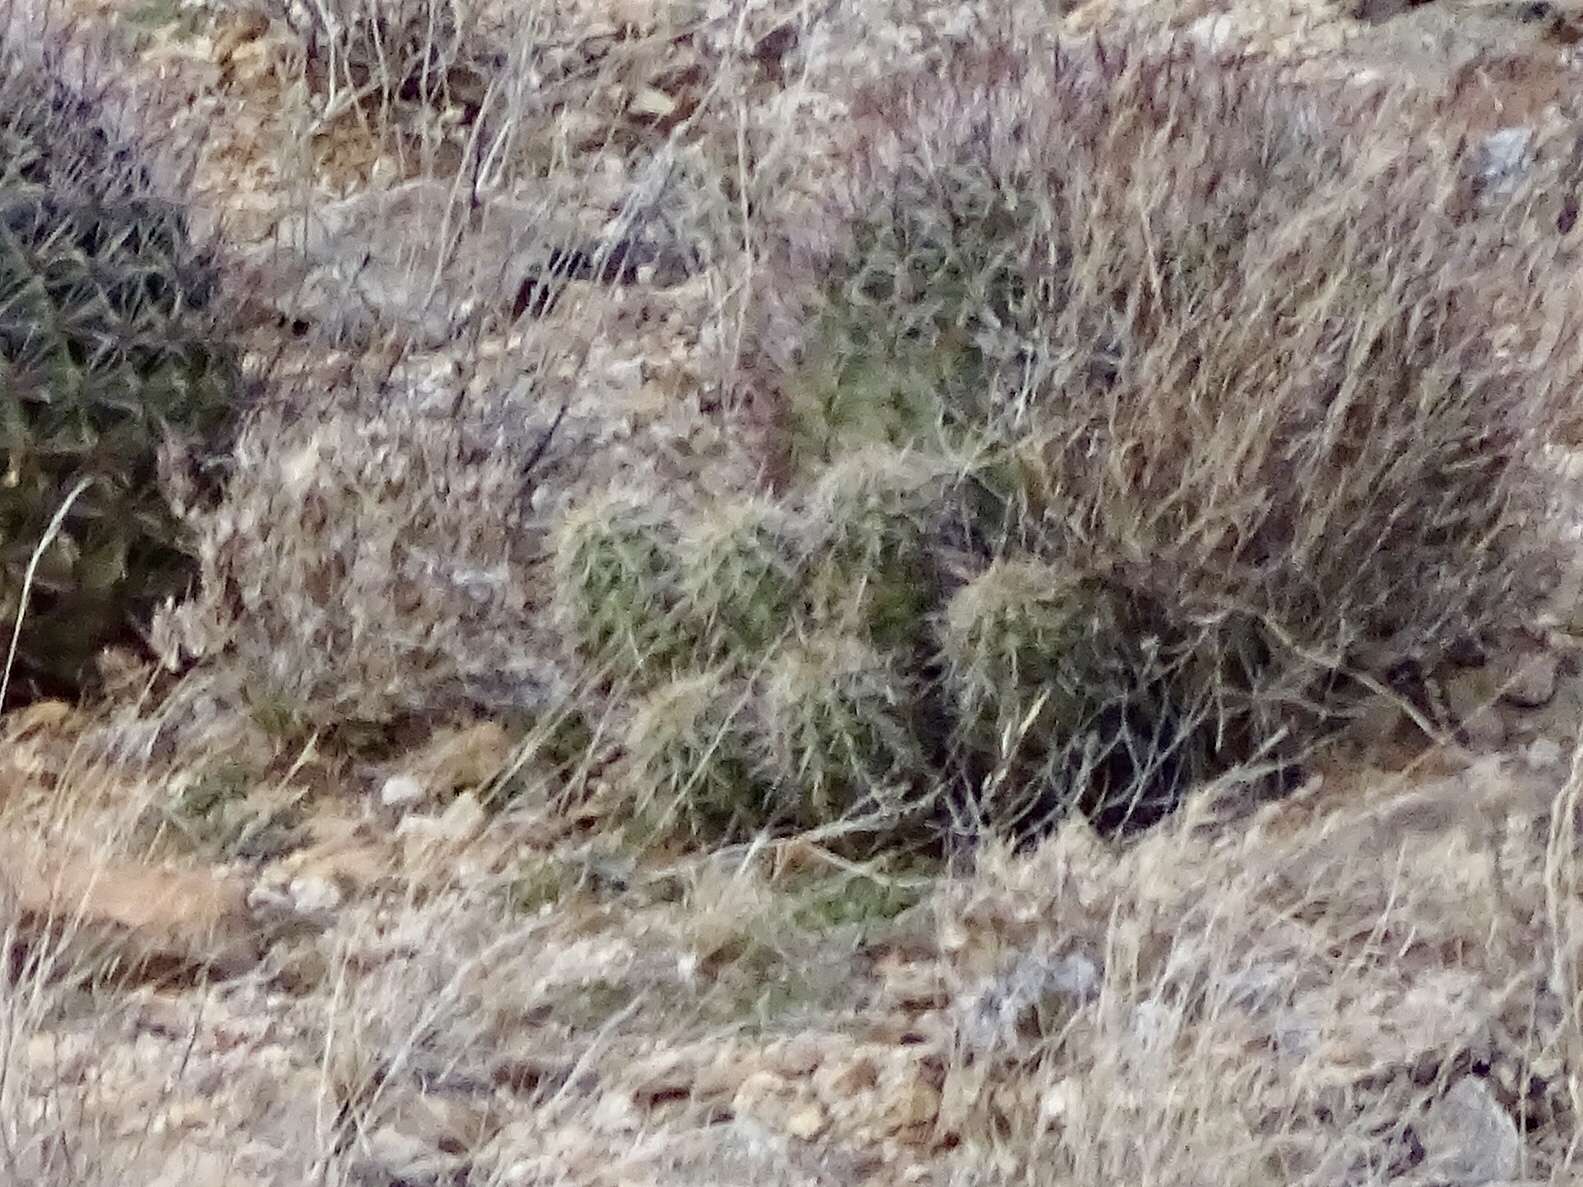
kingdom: Plantae
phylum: Tracheophyta
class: Magnoliopsida
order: Caryophyllales
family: Cactaceae
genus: Echinocereus
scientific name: Echinocereus coccineus
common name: Scarlet hedgehog cactus
